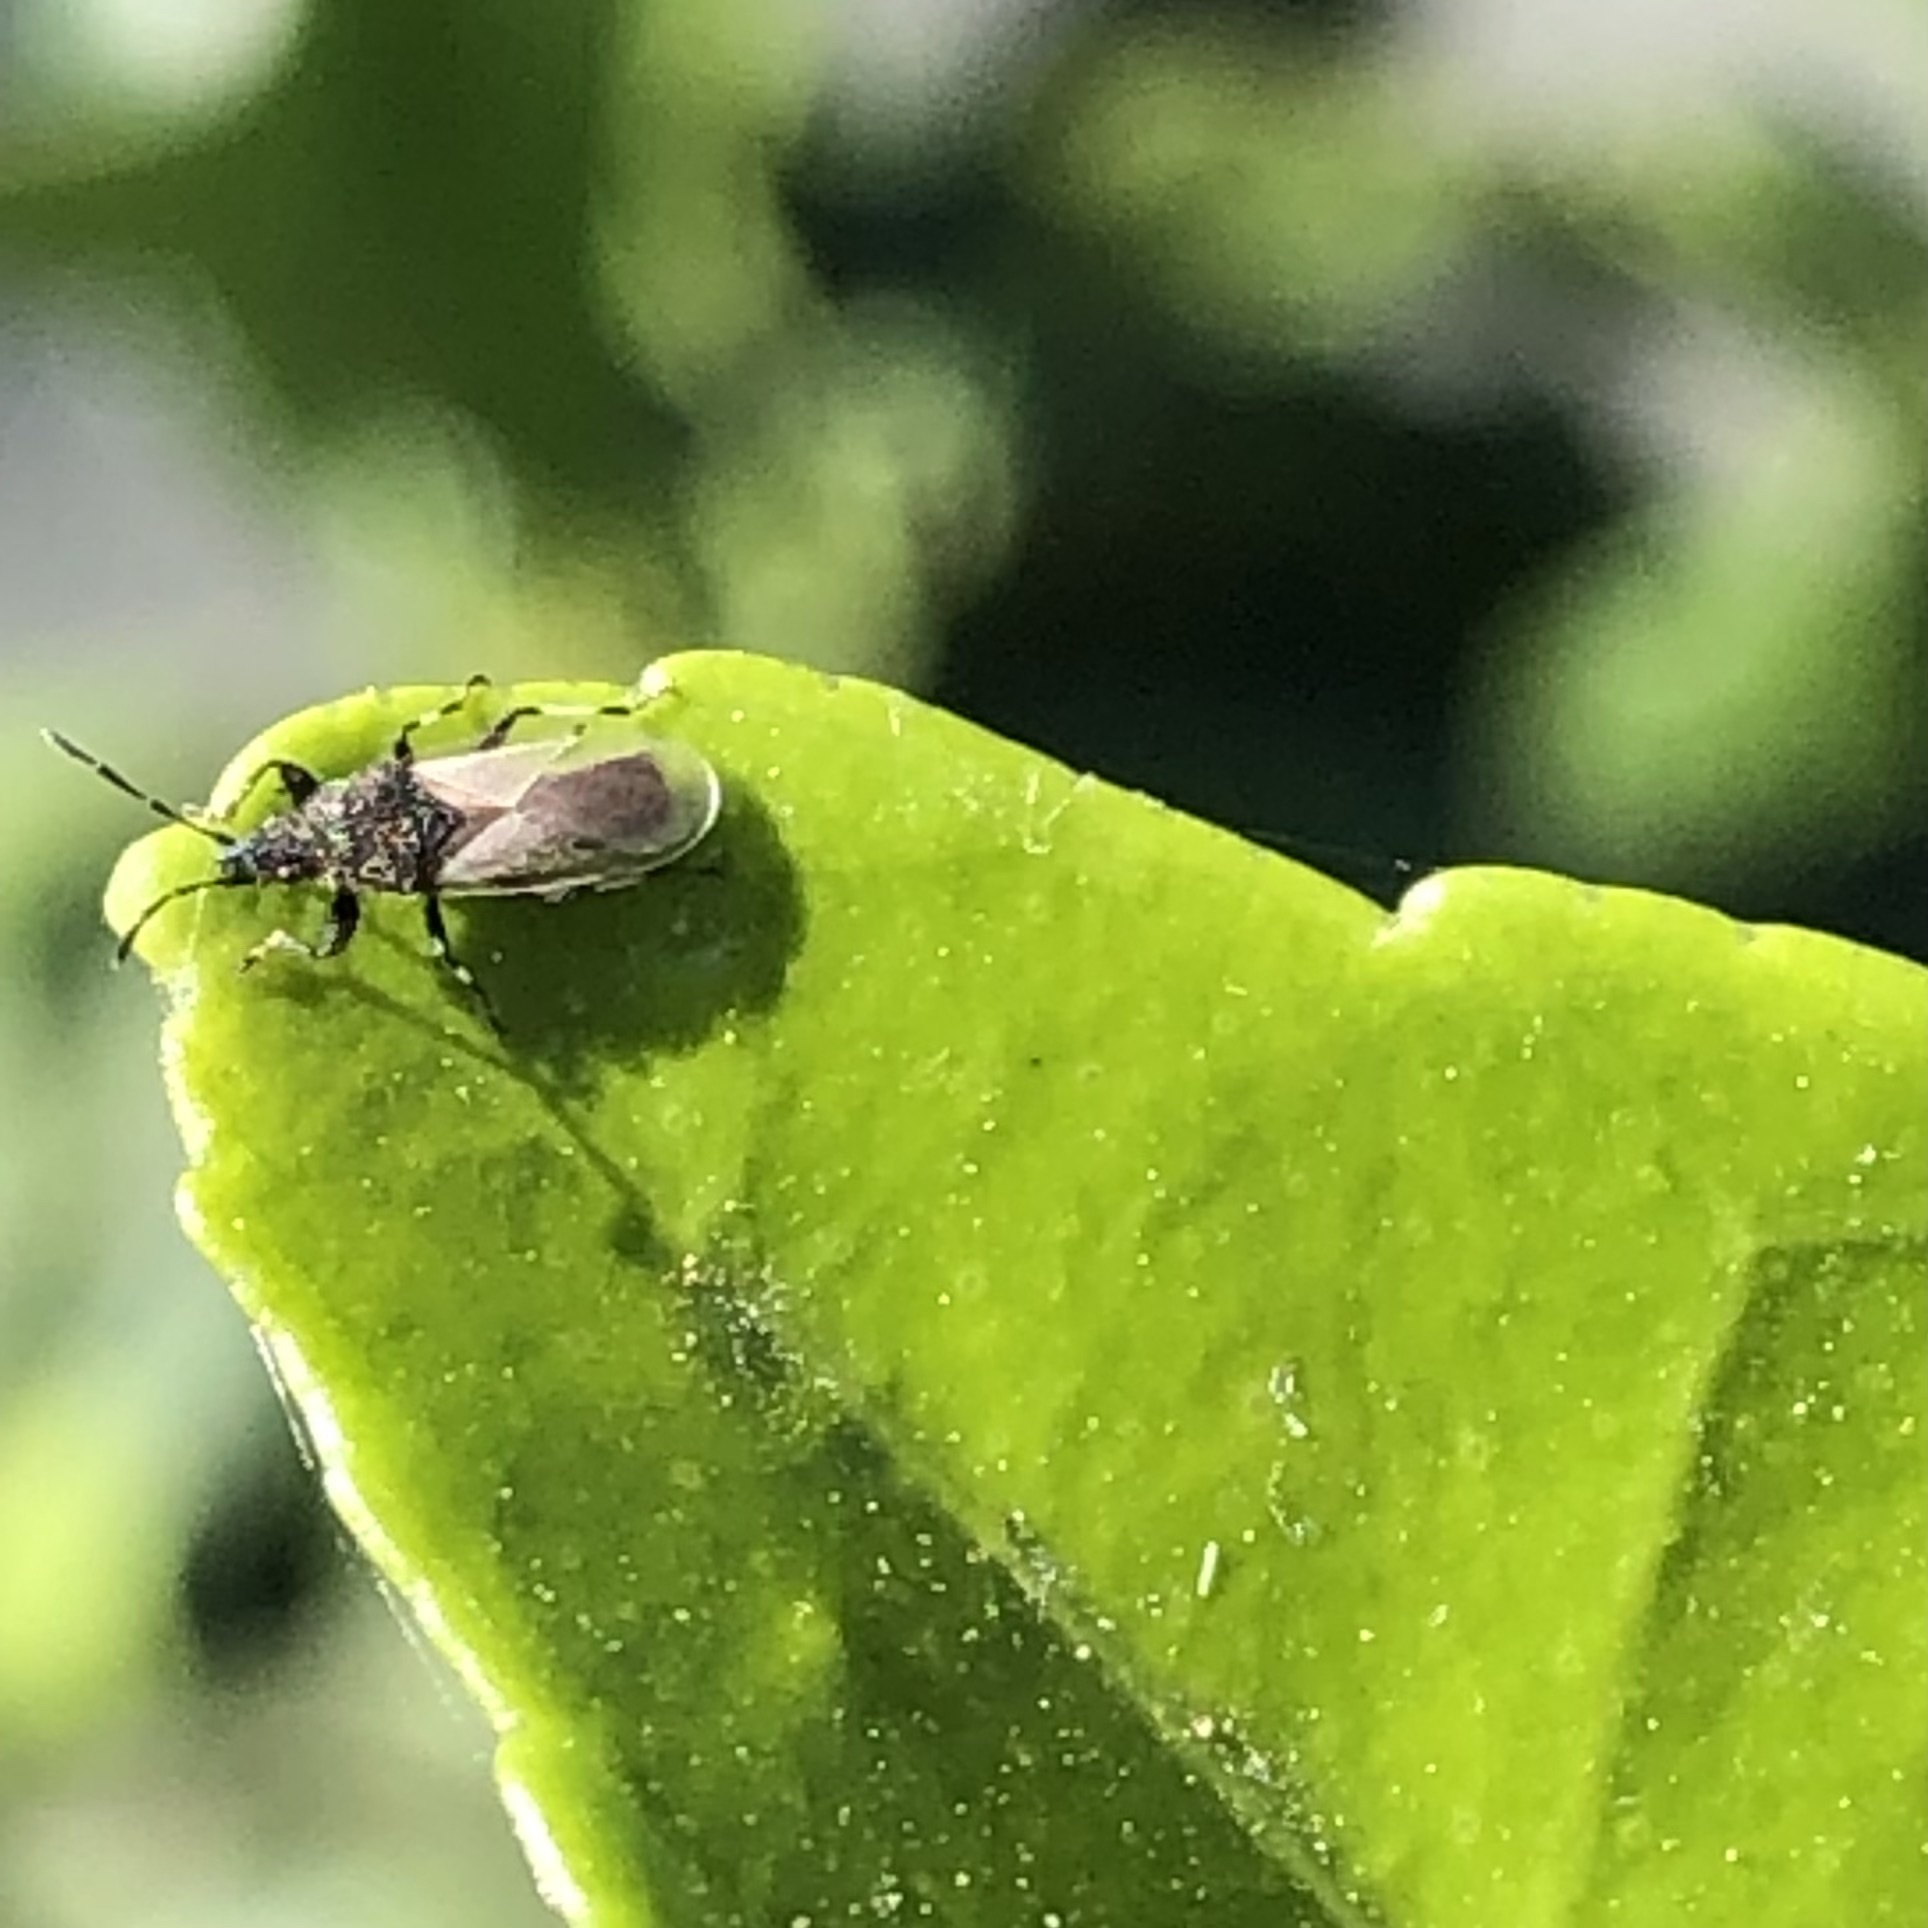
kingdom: Animalia
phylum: Arthropoda
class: Insecta
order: Hemiptera
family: Oxycarenidae
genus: Oxycarenus
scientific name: Oxycarenus hyalinipennis
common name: Cotton seed bug
